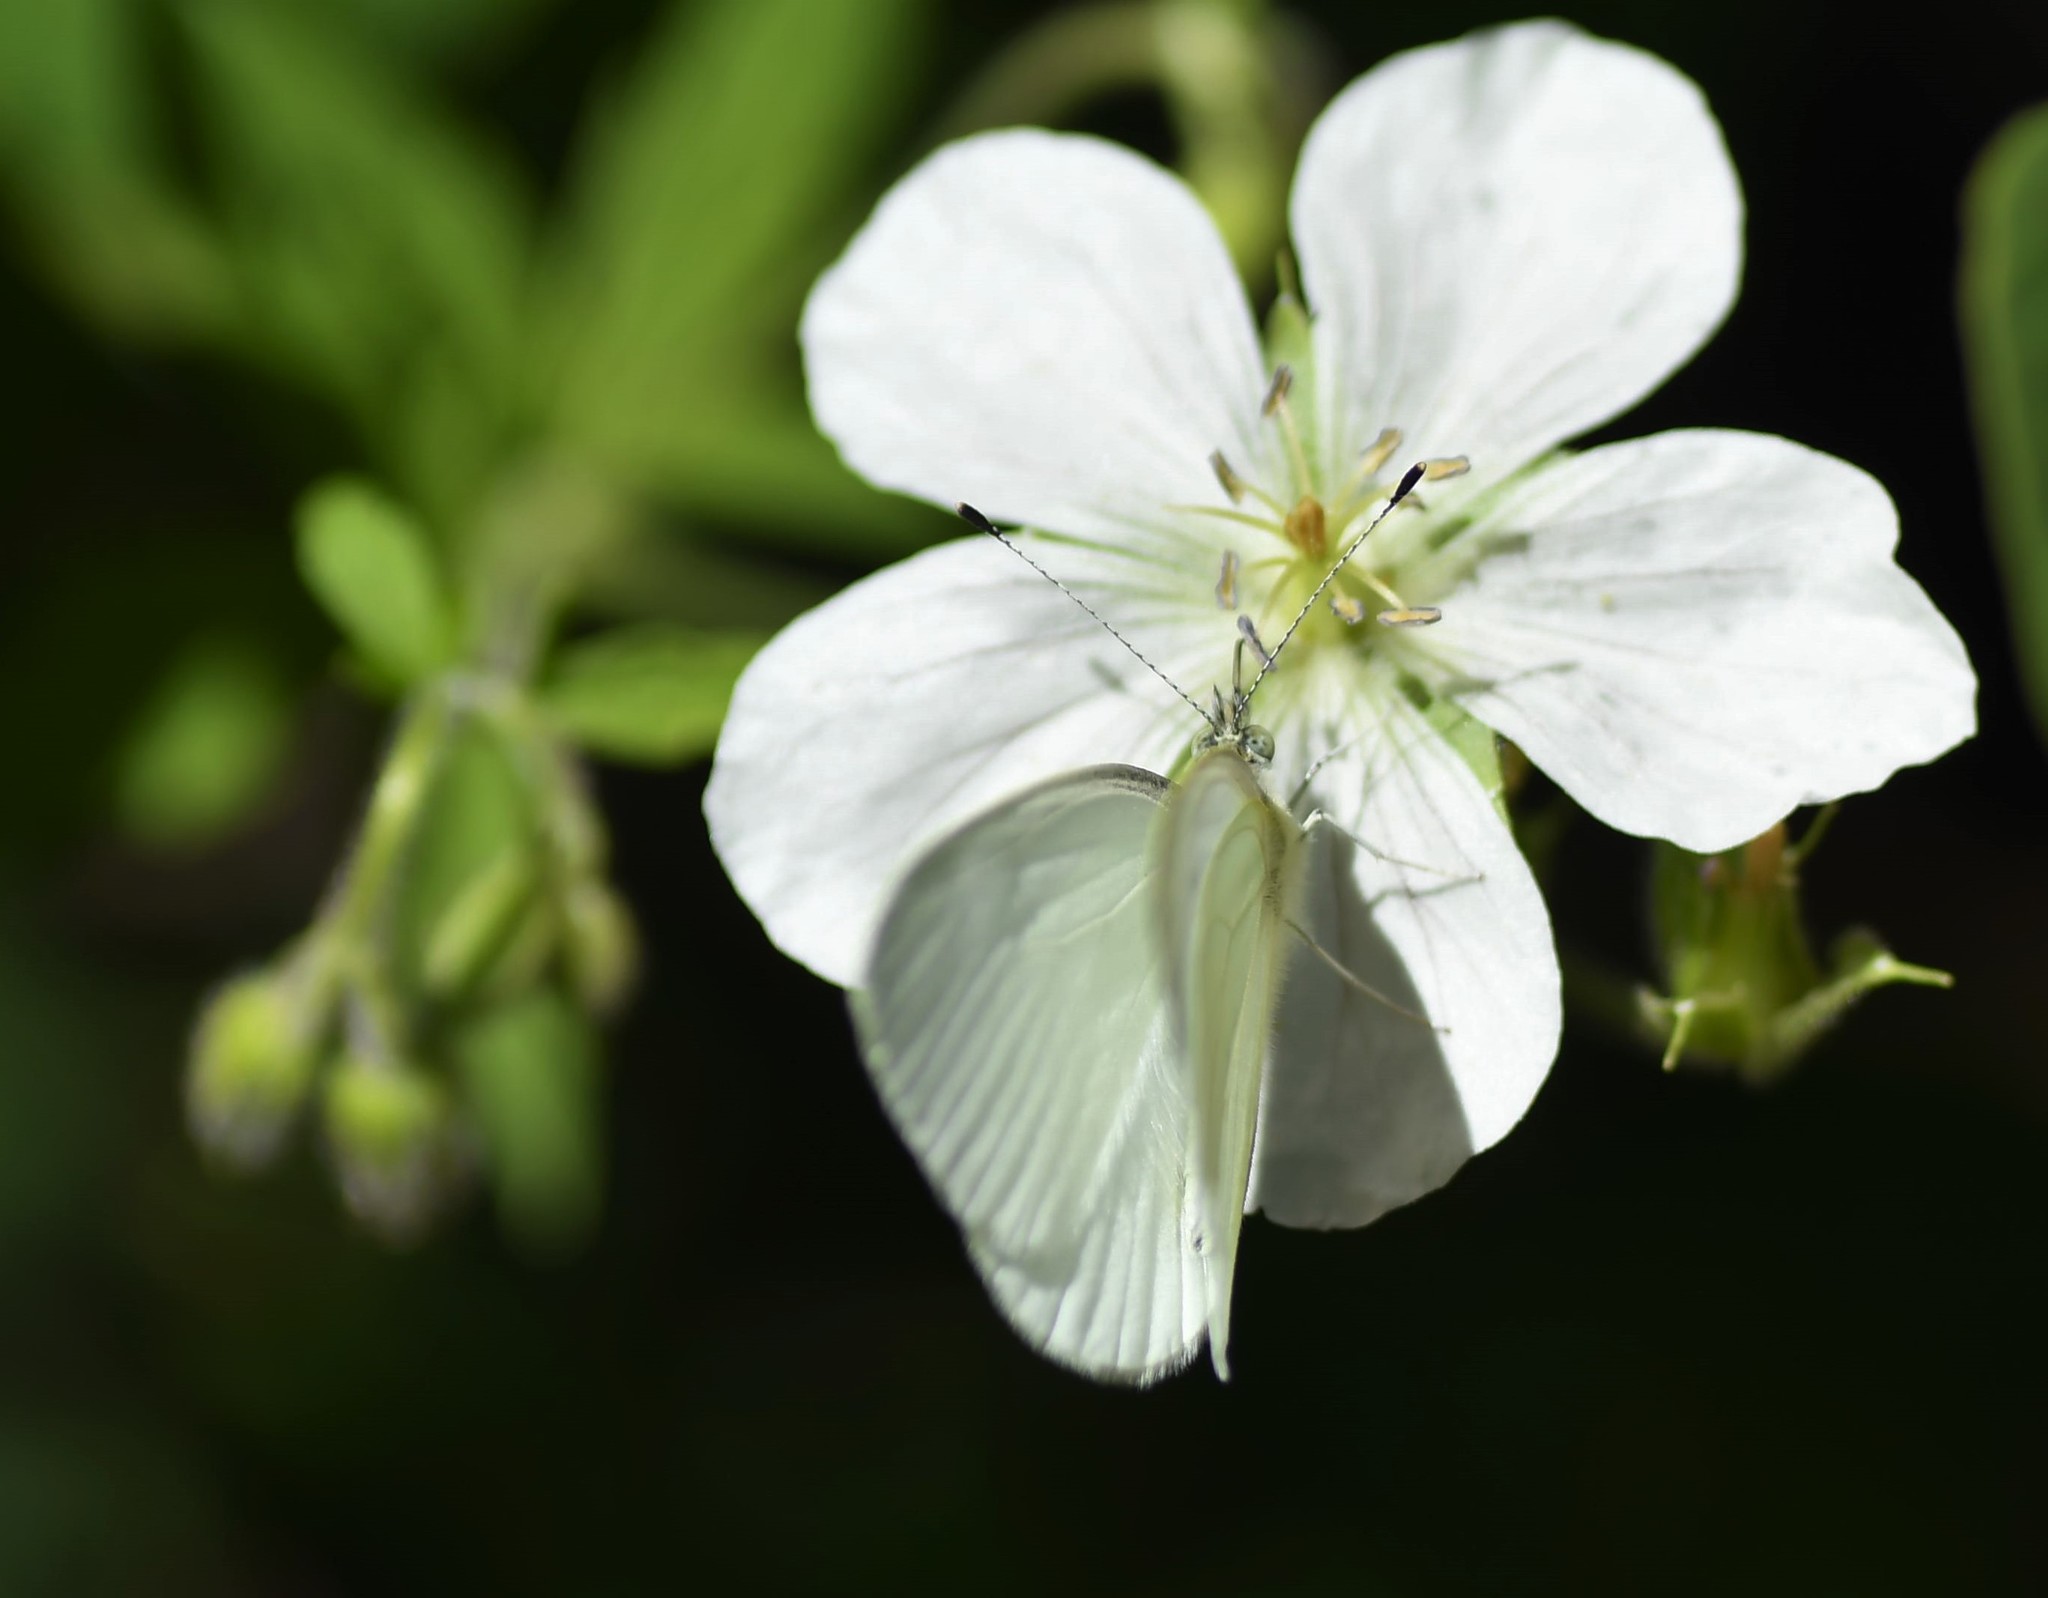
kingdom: Plantae
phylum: Tracheophyta
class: Magnoliopsida
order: Geraniales
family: Geraniaceae
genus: Geranium
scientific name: Geranium richardsonii
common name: Richardson's crane's-bill
